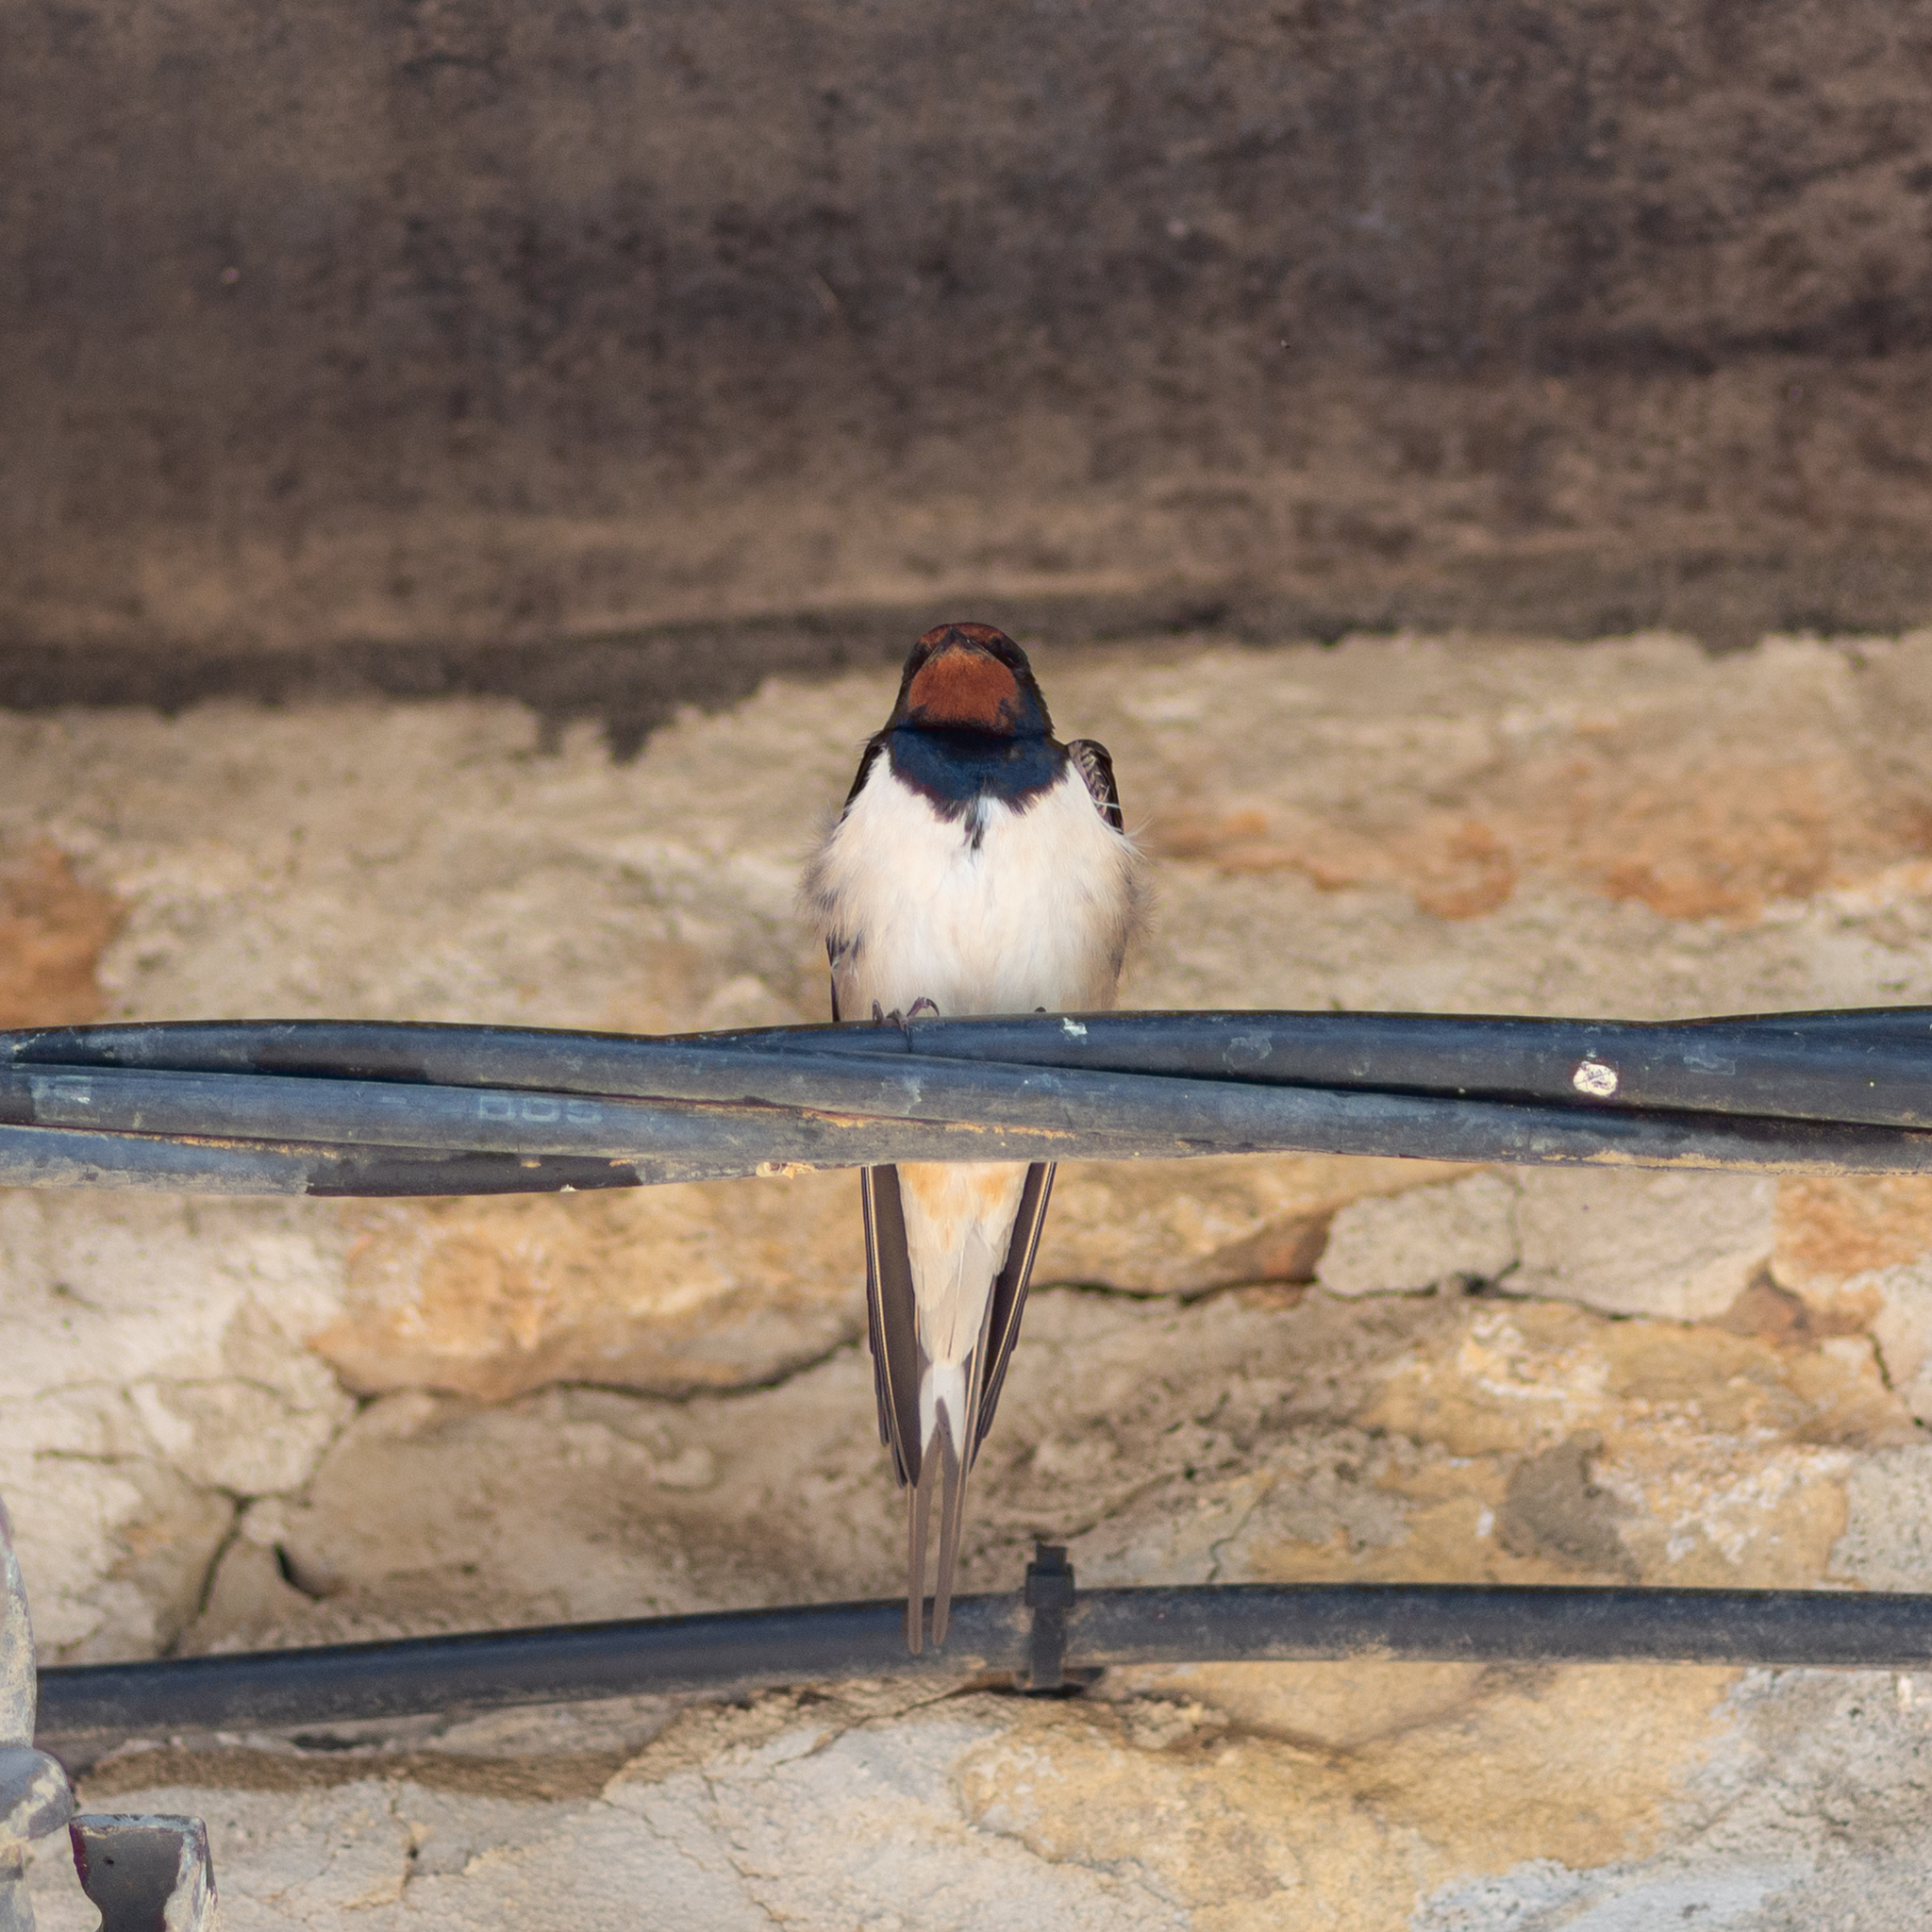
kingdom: Animalia
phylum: Chordata
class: Aves
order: Passeriformes
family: Hirundinidae
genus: Hirundo
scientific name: Hirundo rustica
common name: Barn swallow
